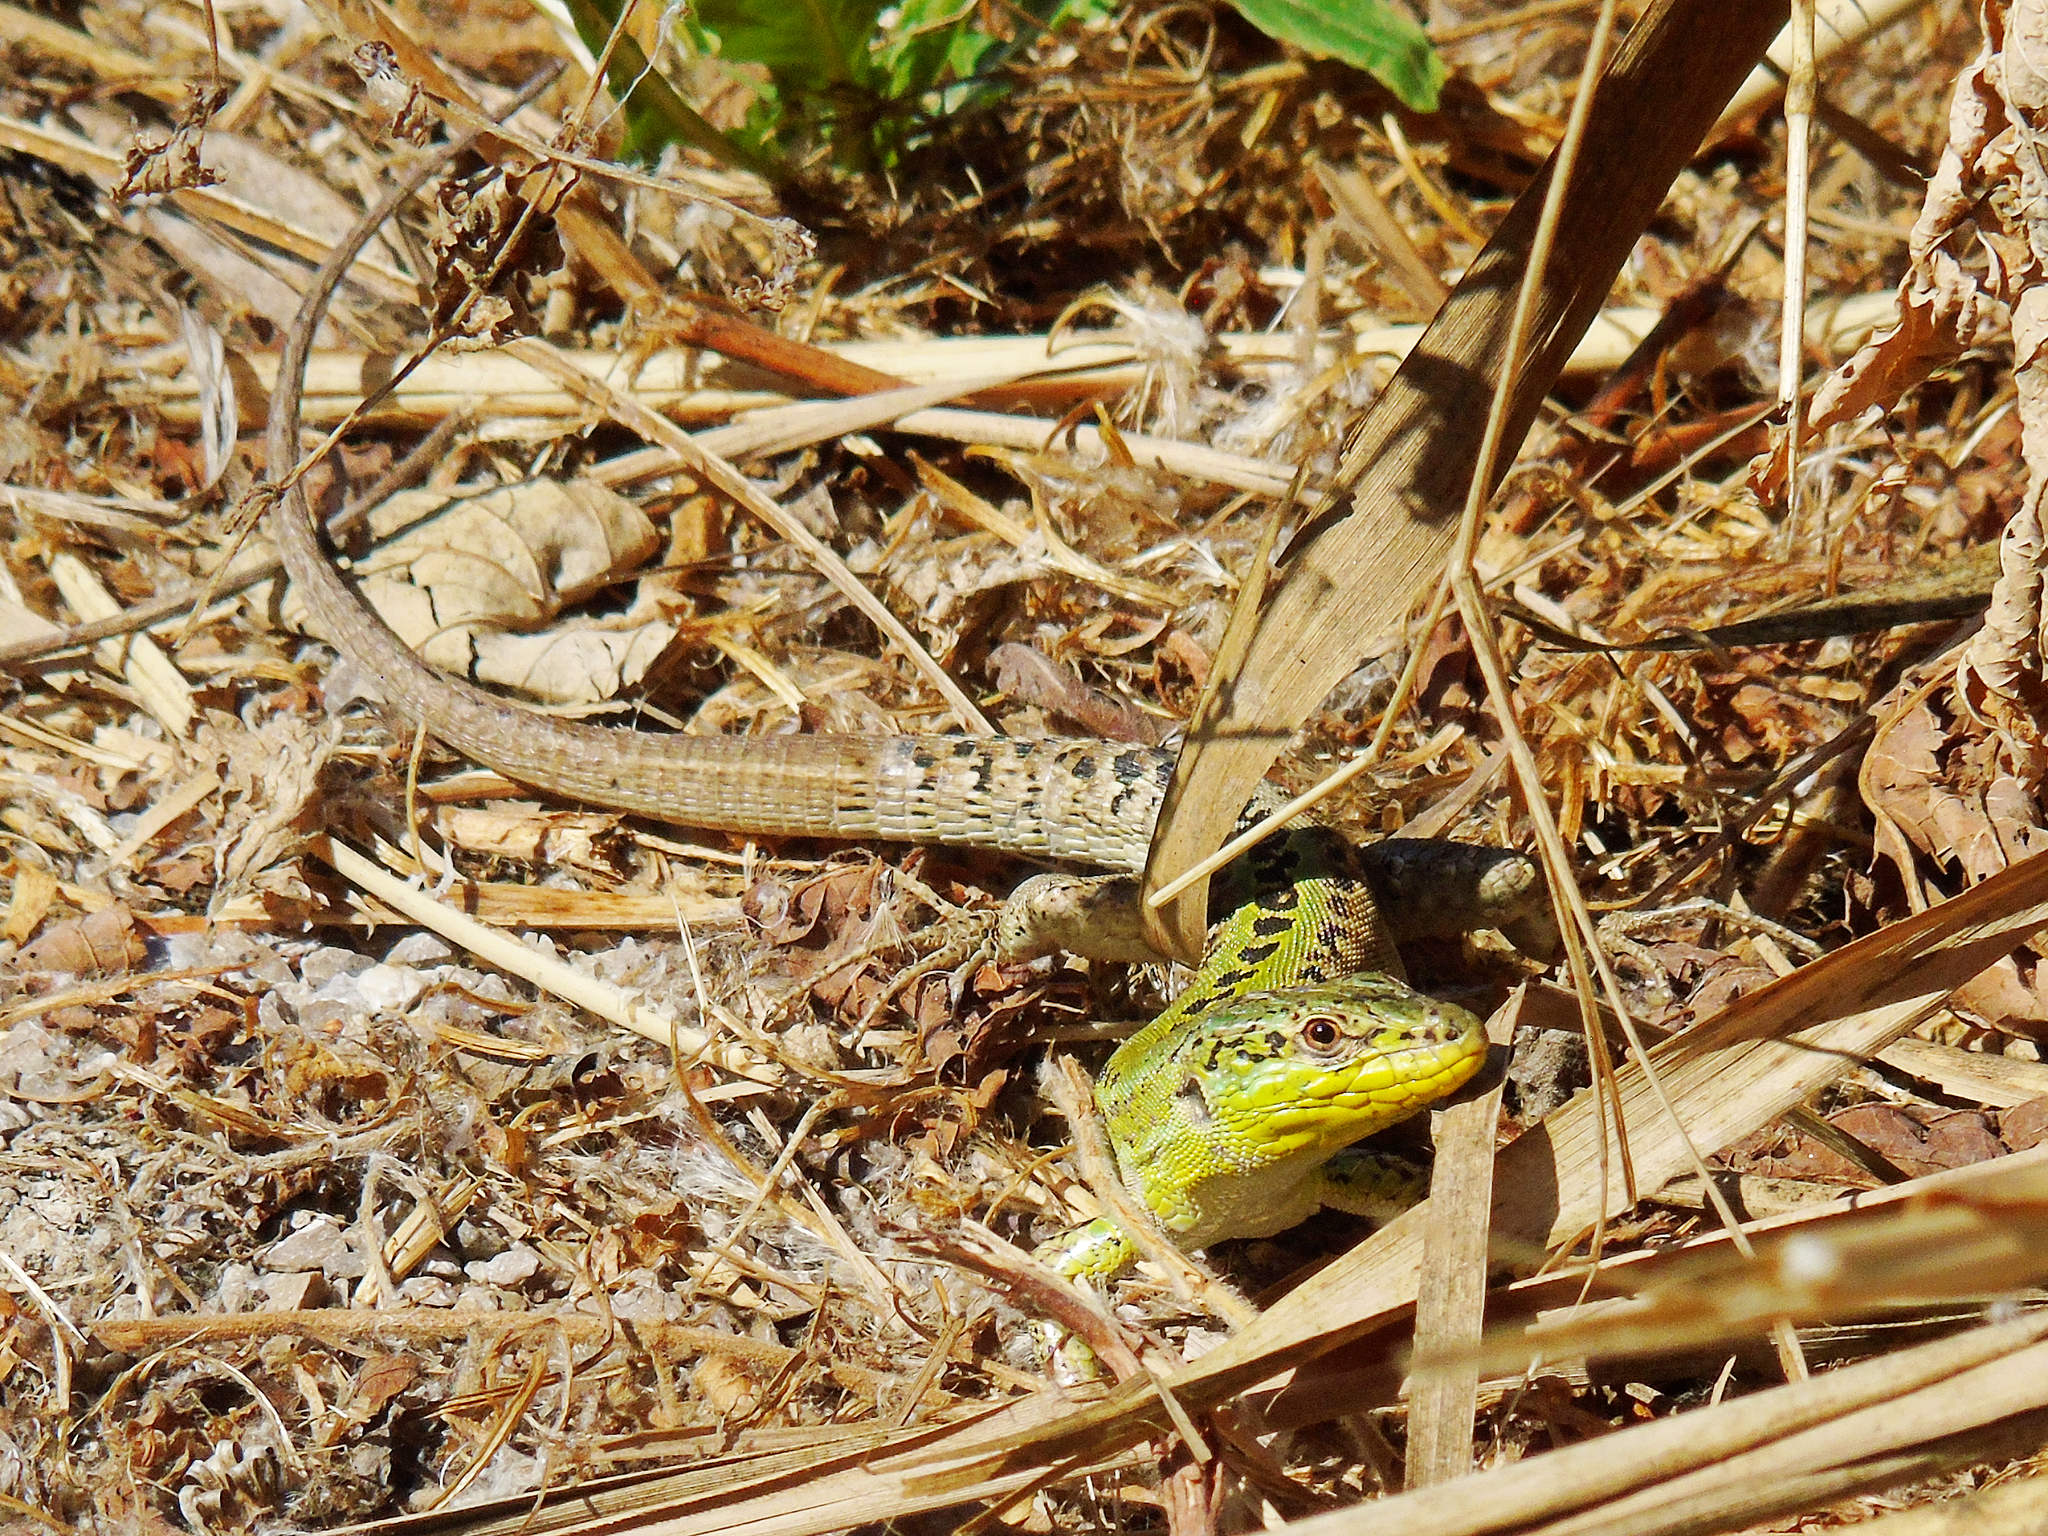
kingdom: Animalia
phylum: Chordata
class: Squamata
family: Lacertidae
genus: Podarcis
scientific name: Podarcis siculus
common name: Italian wall lizard
